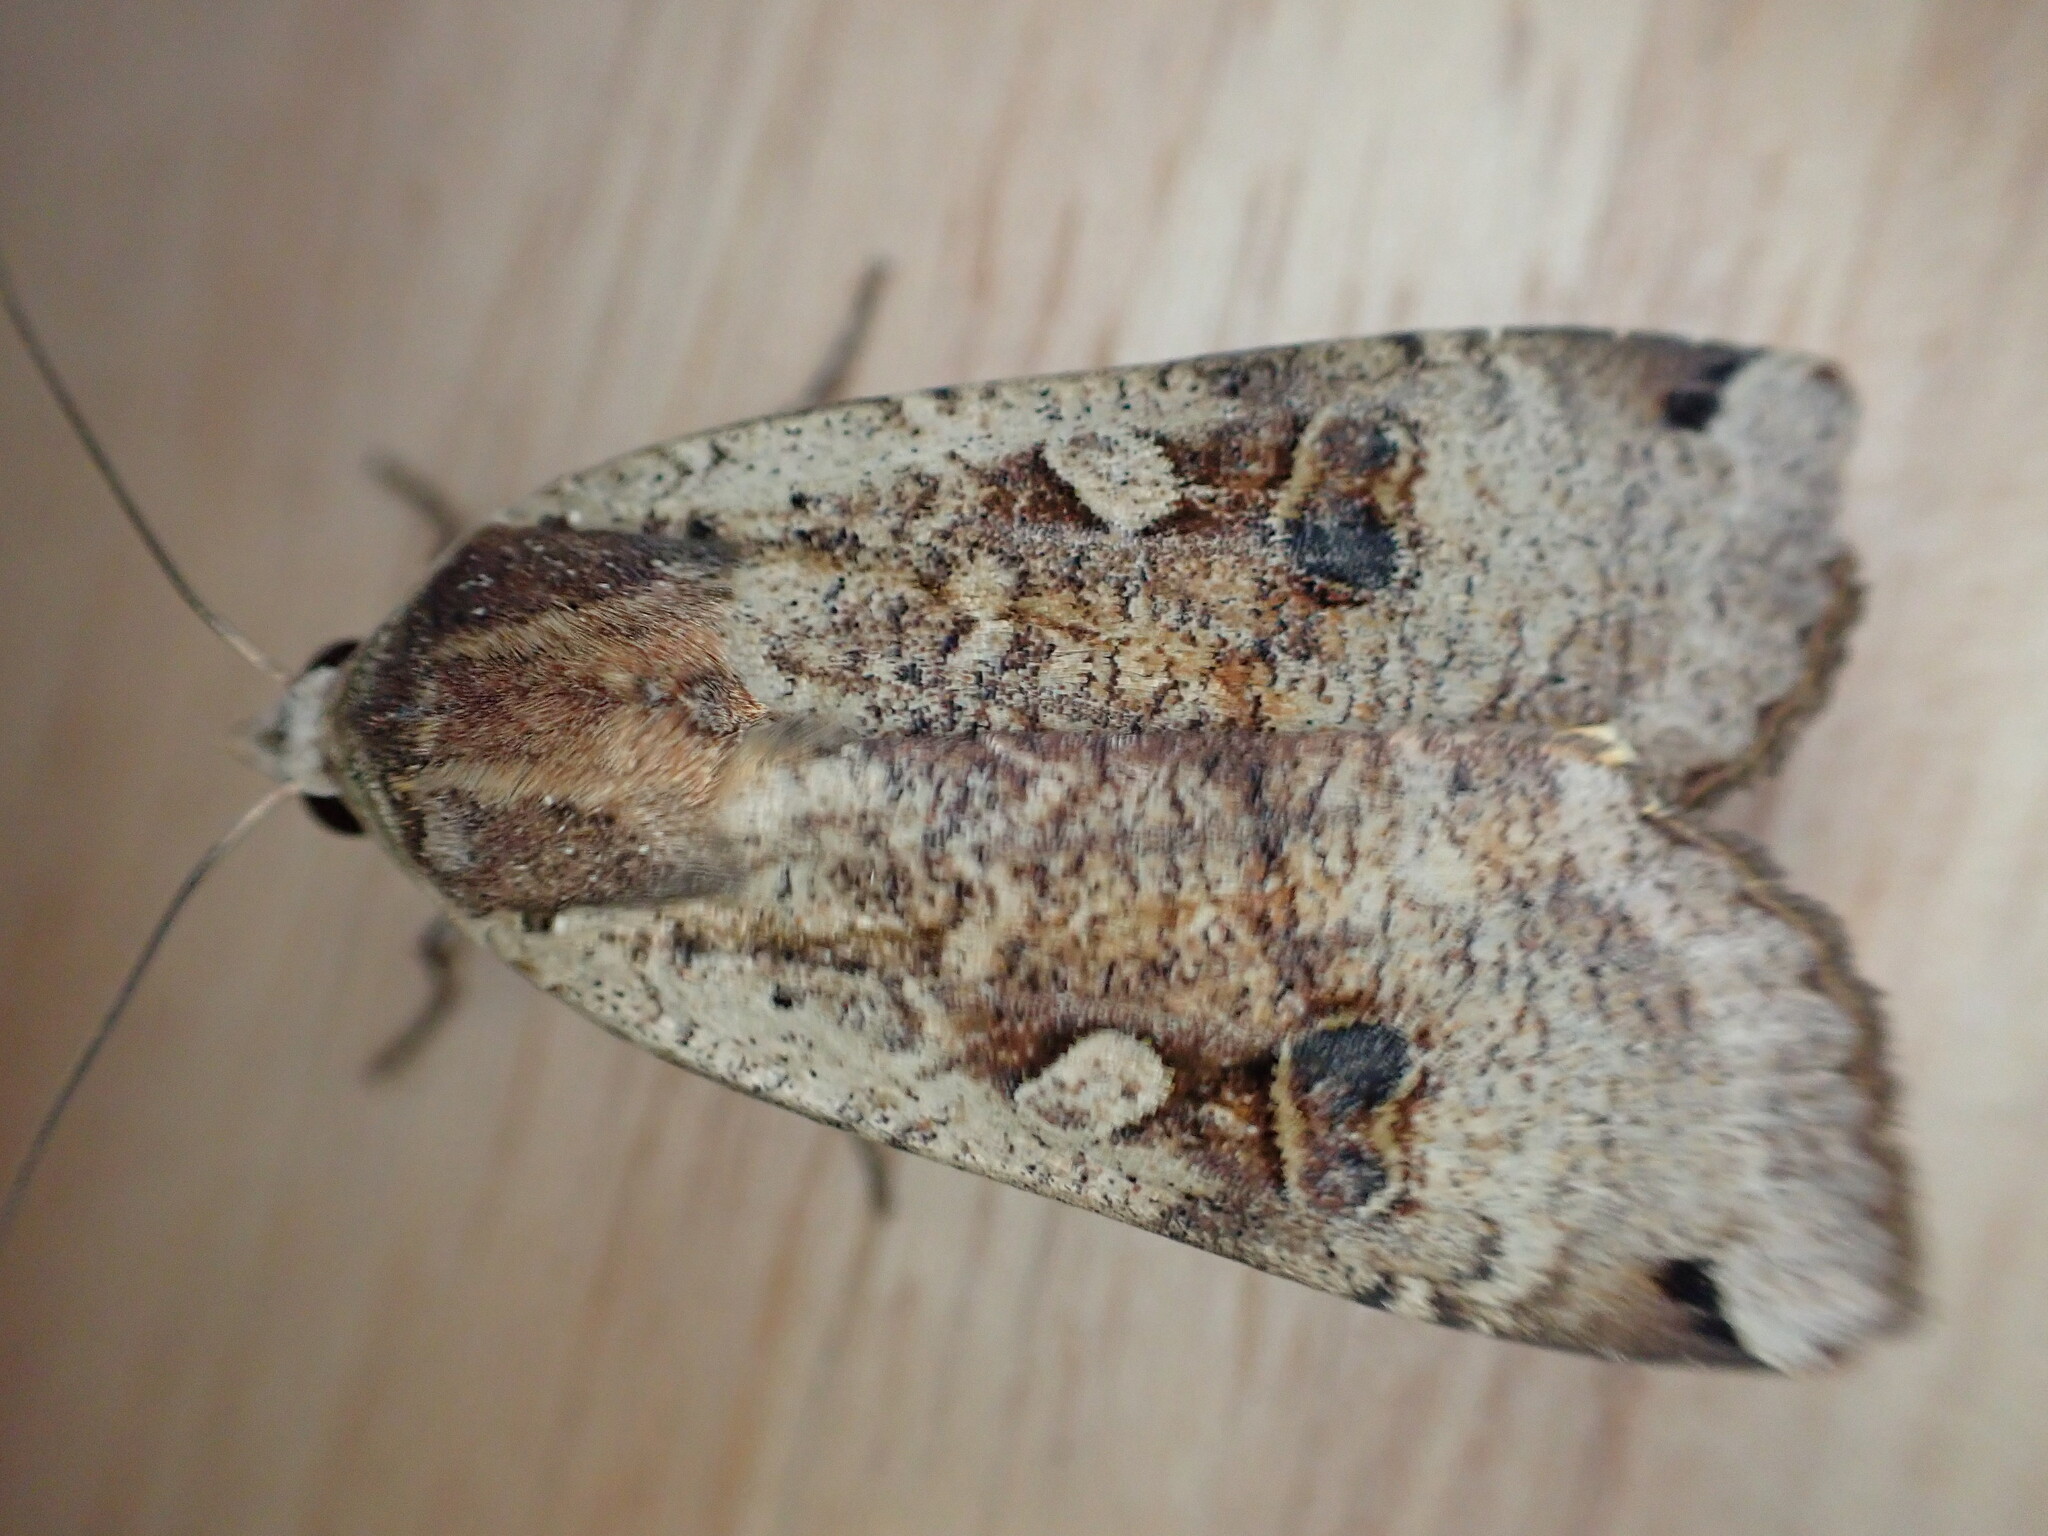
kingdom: Animalia
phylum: Arthropoda
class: Insecta
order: Lepidoptera
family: Noctuidae
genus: Noctua
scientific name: Noctua pronuba
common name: Large yellow underwing
